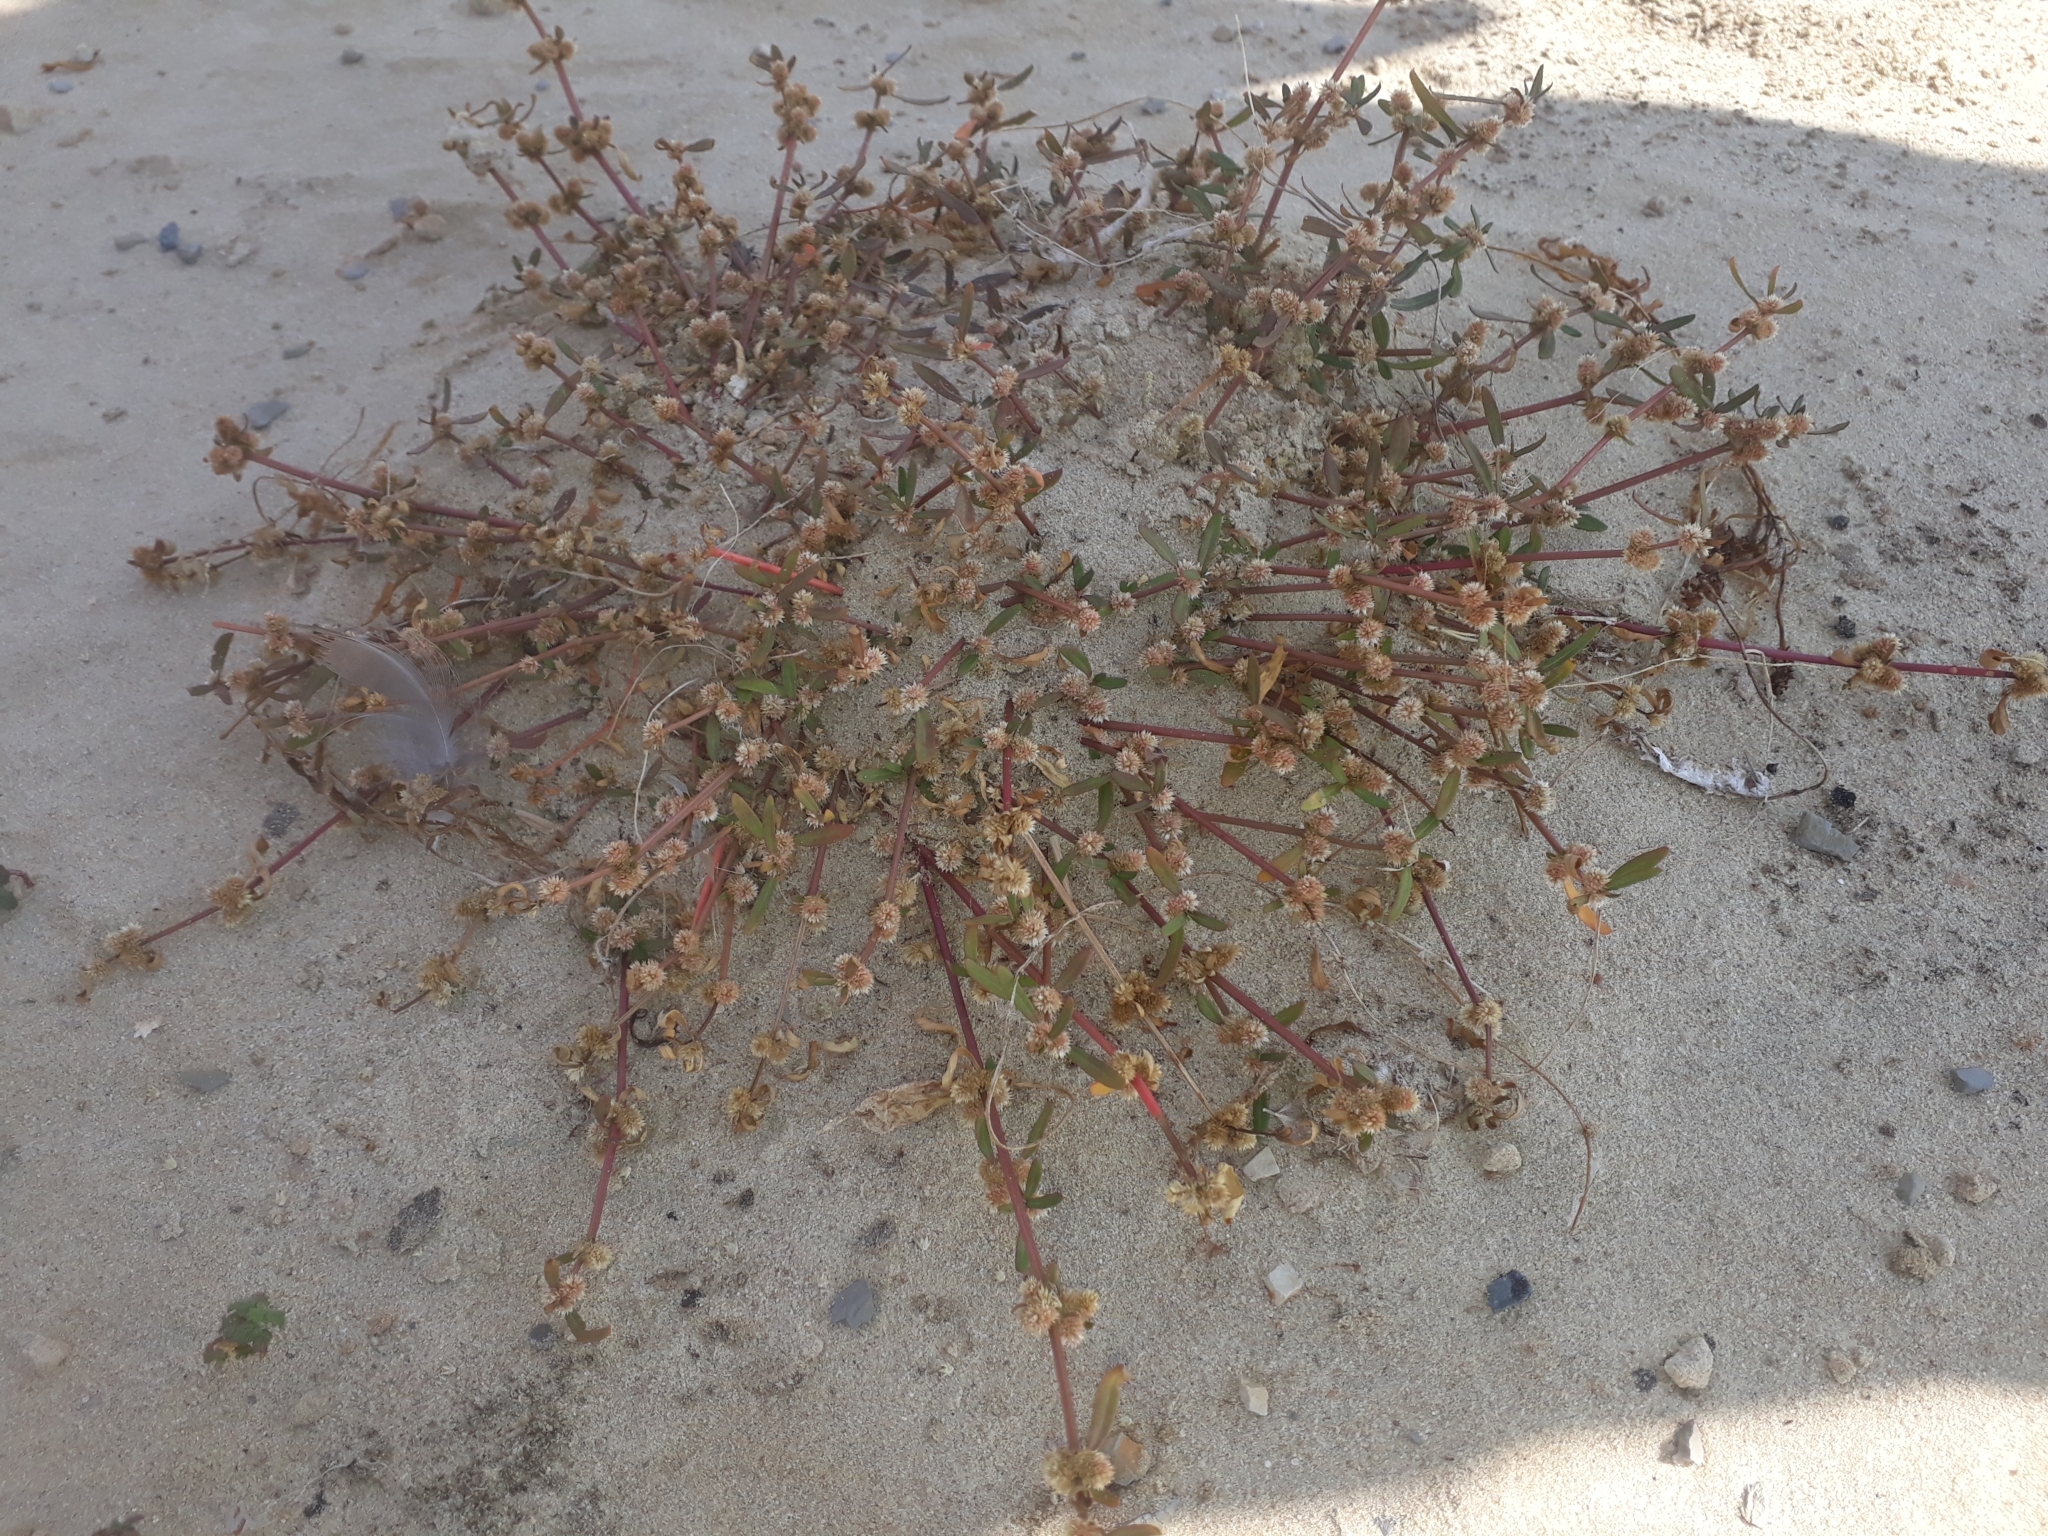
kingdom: Plantae
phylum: Tracheophyta
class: Magnoliopsida
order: Caryophyllales
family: Amaranthaceae
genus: Alternanthera
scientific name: Alternanthera nahui
